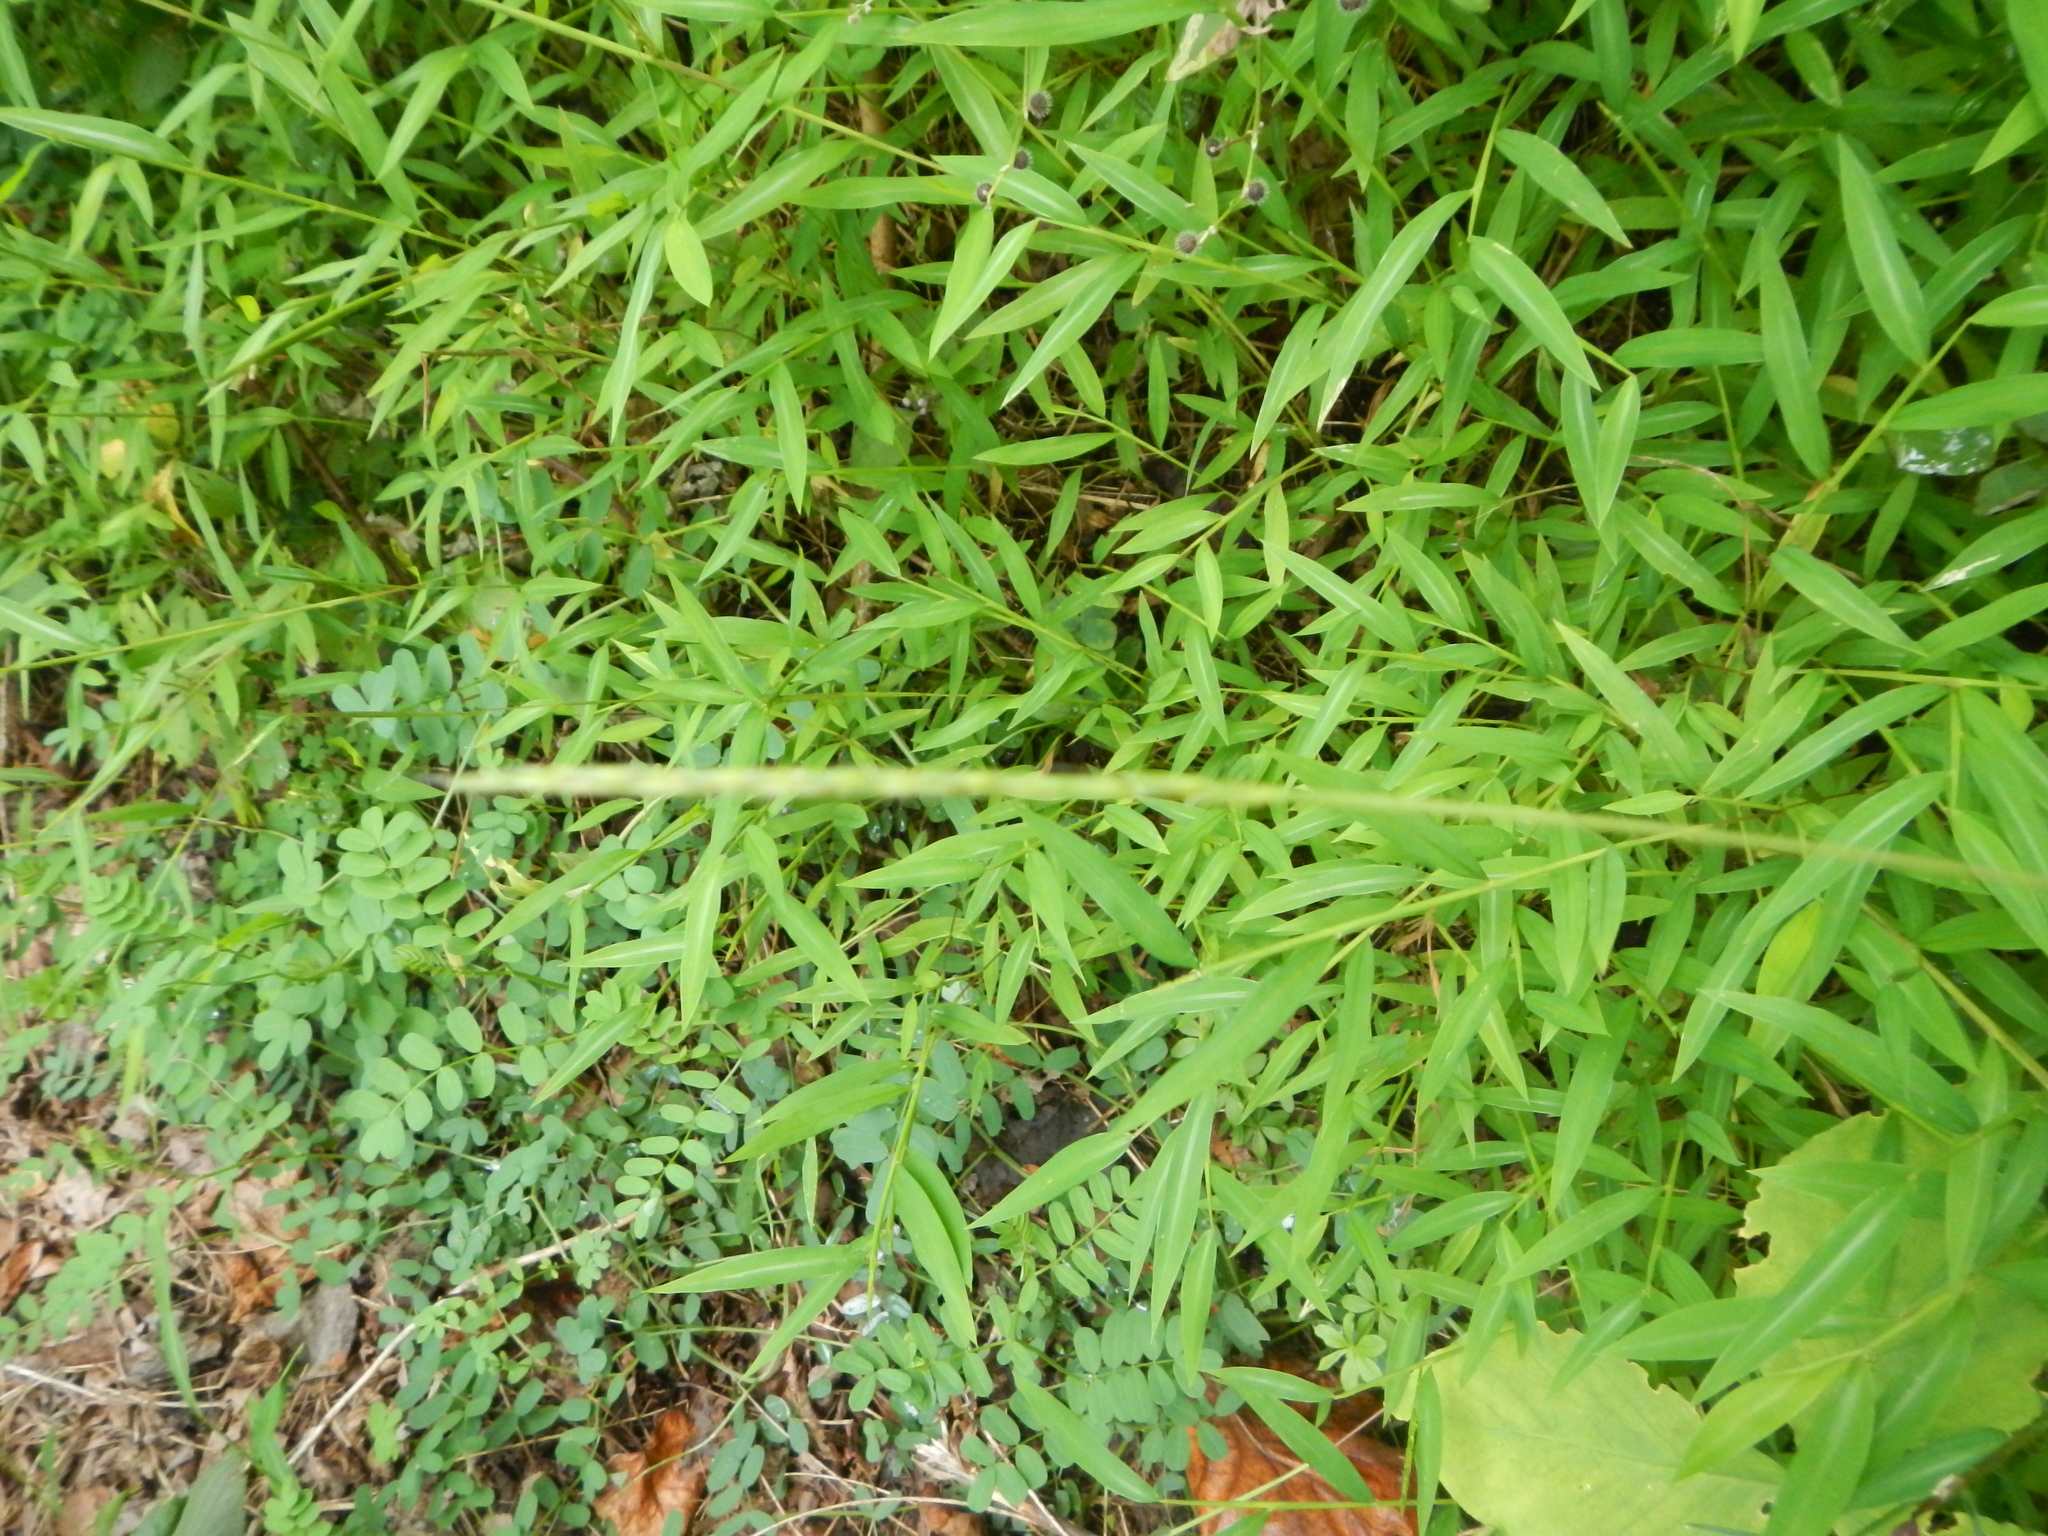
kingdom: Plantae
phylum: Tracheophyta
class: Liliopsida
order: Poales
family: Poaceae
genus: Microstegium
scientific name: Microstegium vimineum
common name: Japanese stiltgrass
